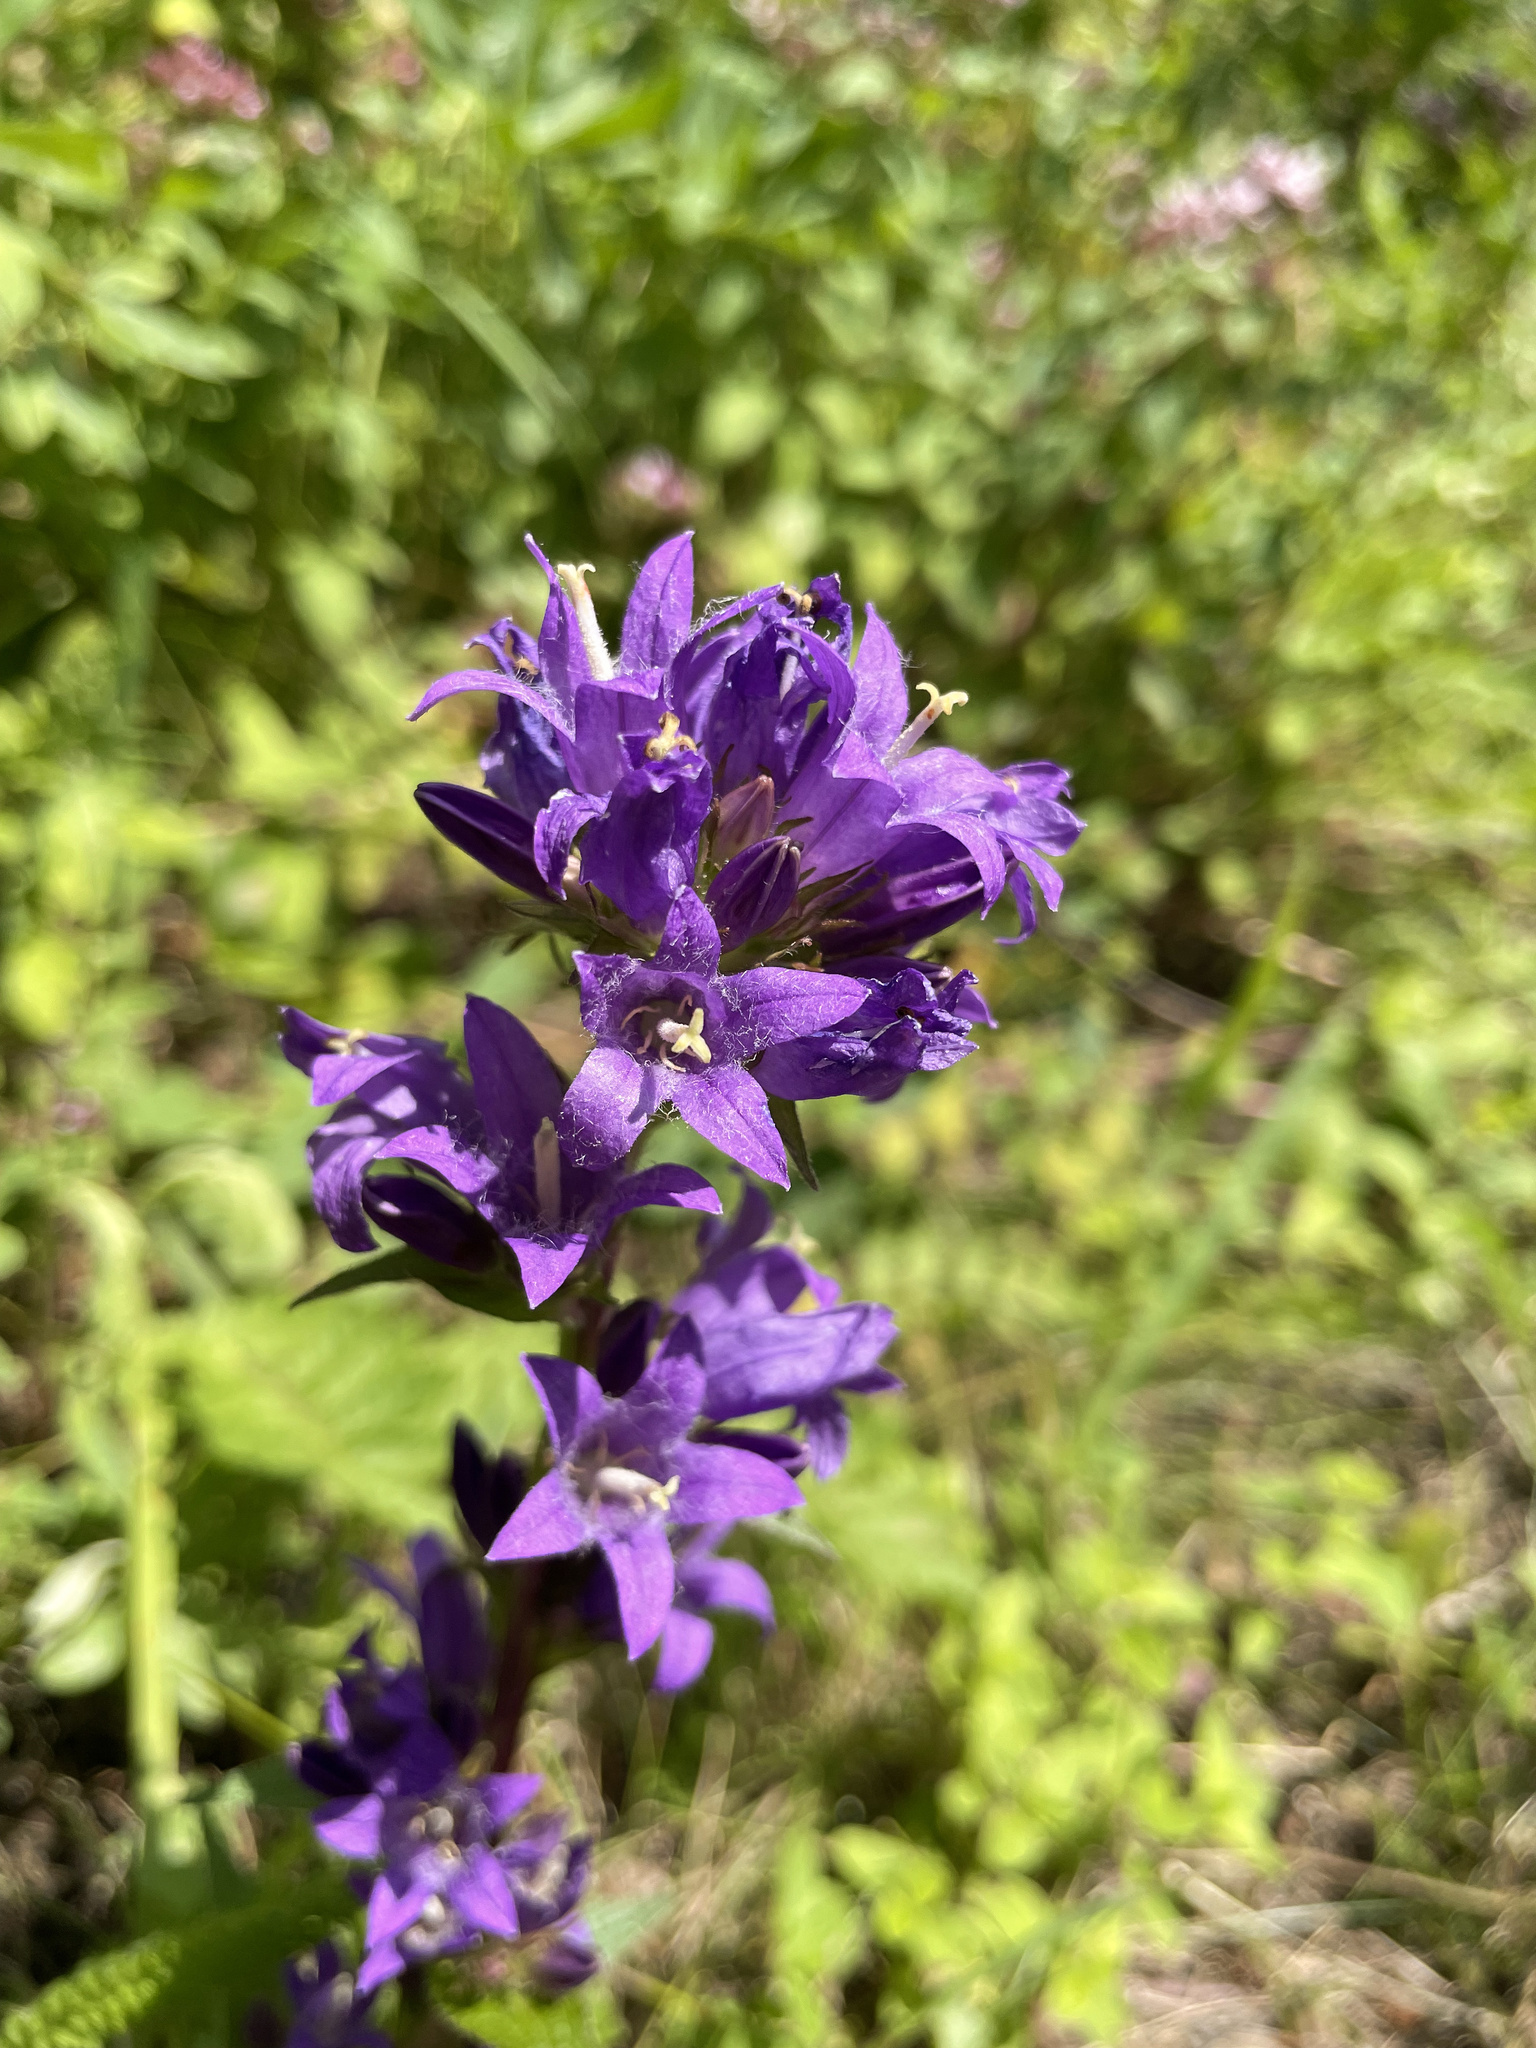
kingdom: Plantae
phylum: Tracheophyta
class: Magnoliopsida
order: Asterales
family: Campanulaceae
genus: Campanula
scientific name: Campanula glomerata
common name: Clustered bellflower
